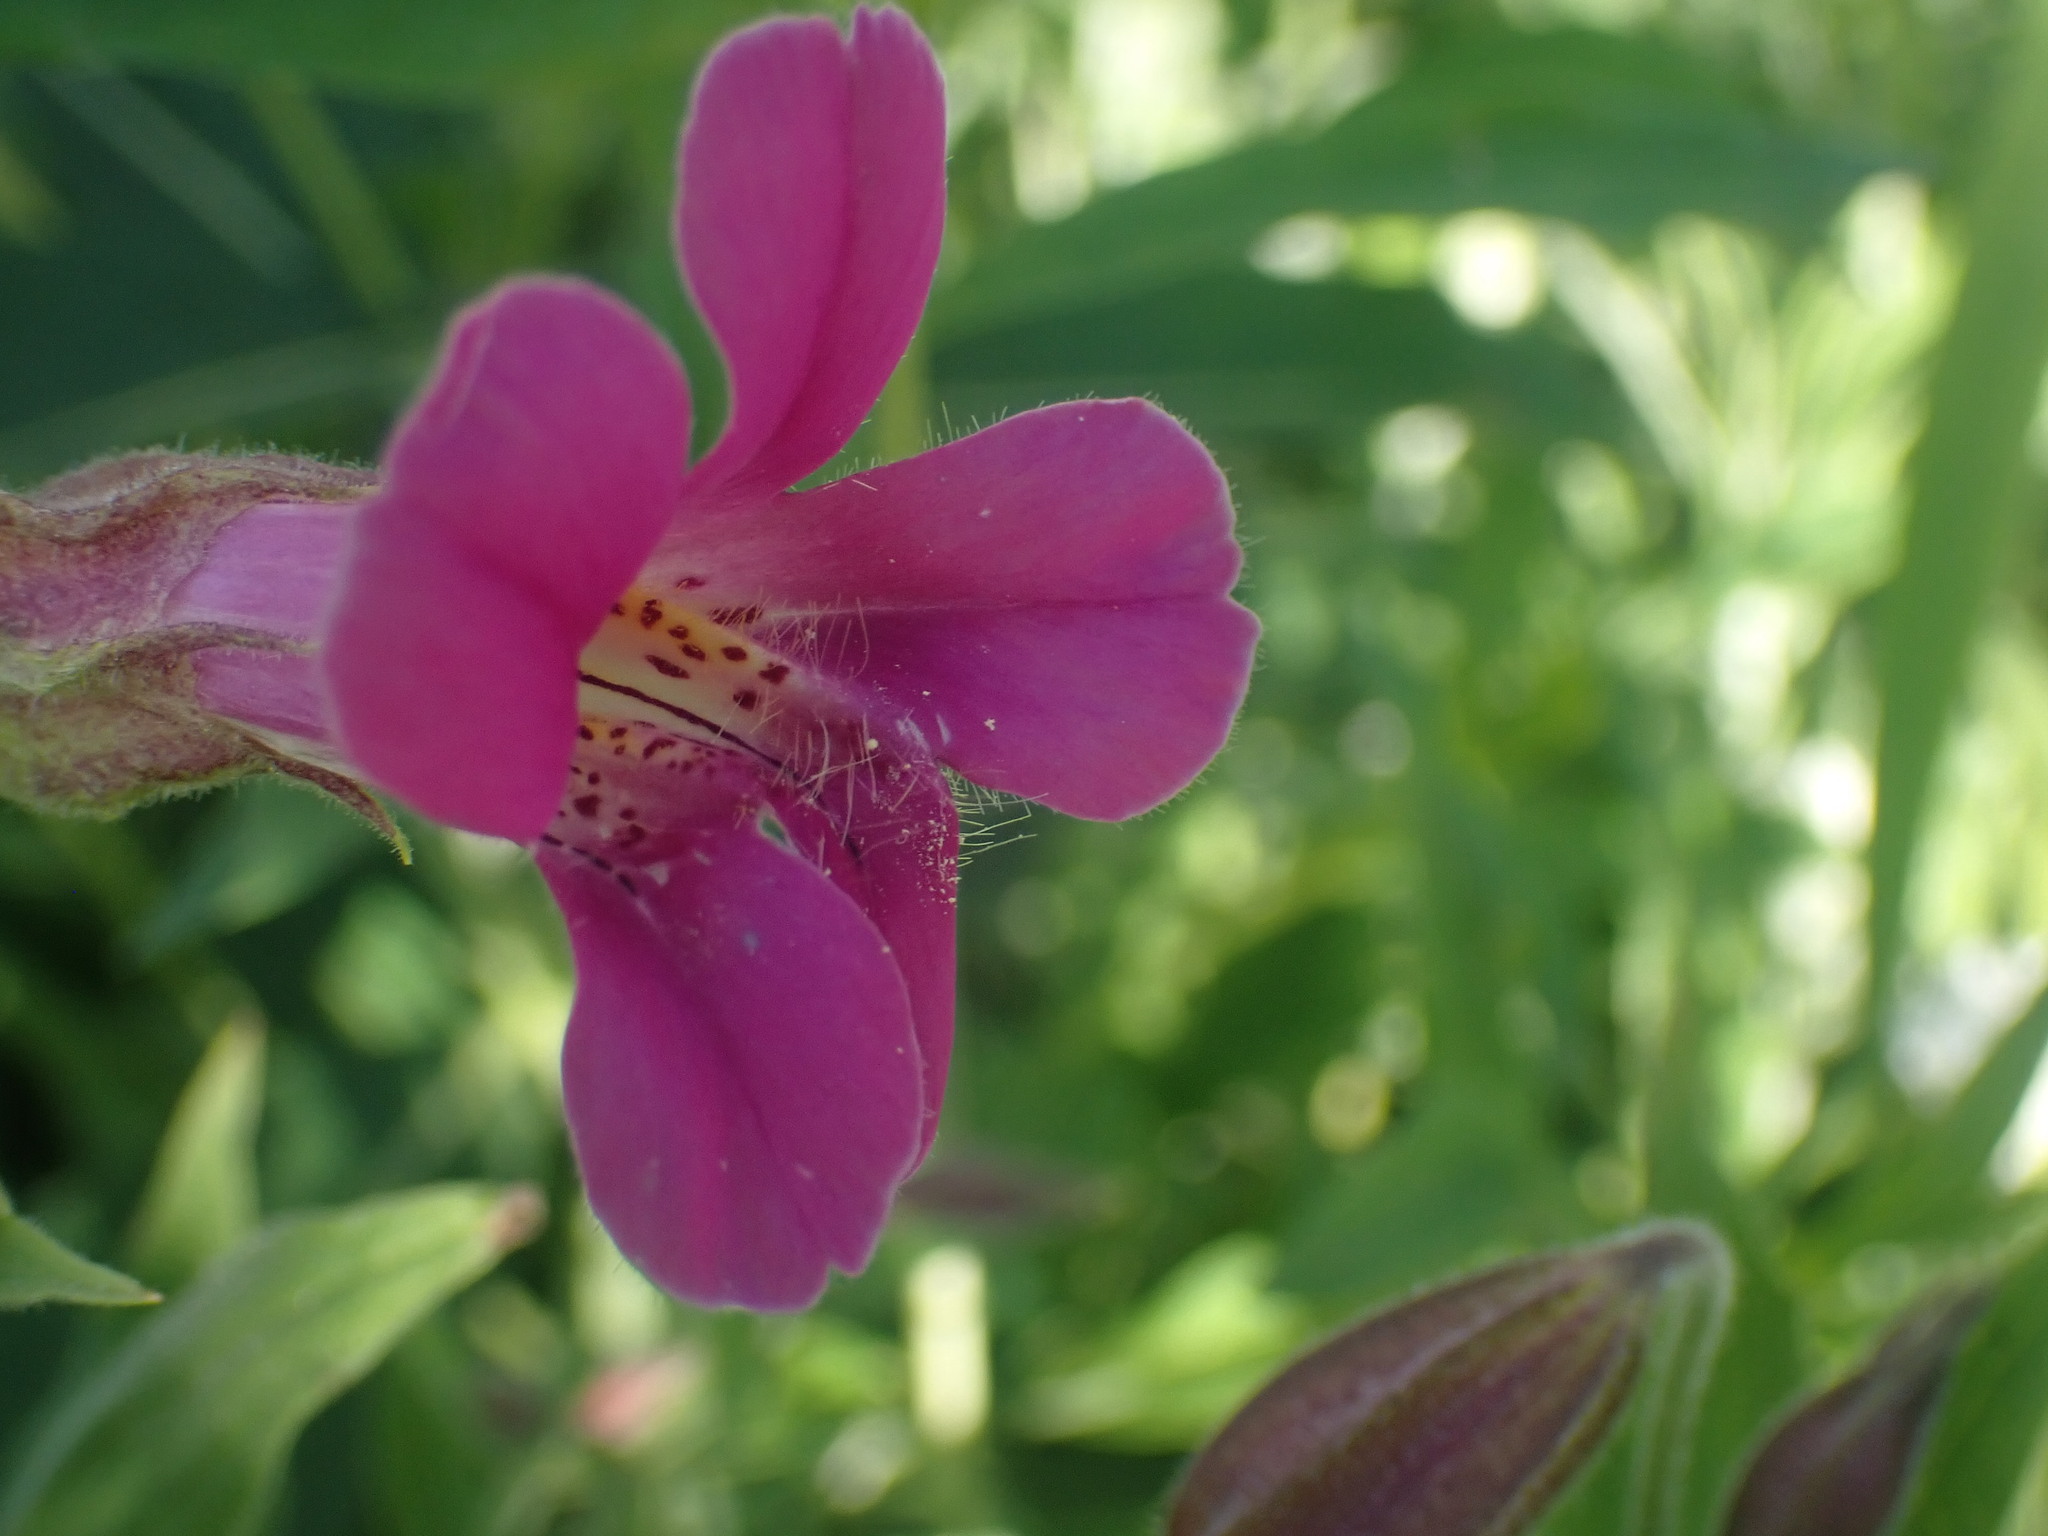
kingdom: Plantae
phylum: Tracheophyta
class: Magnoliopsida
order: Lamiales
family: Phrymaceae
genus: Erythranthe
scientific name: Erythranthe lewisii
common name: Lewis's monkey-flower
